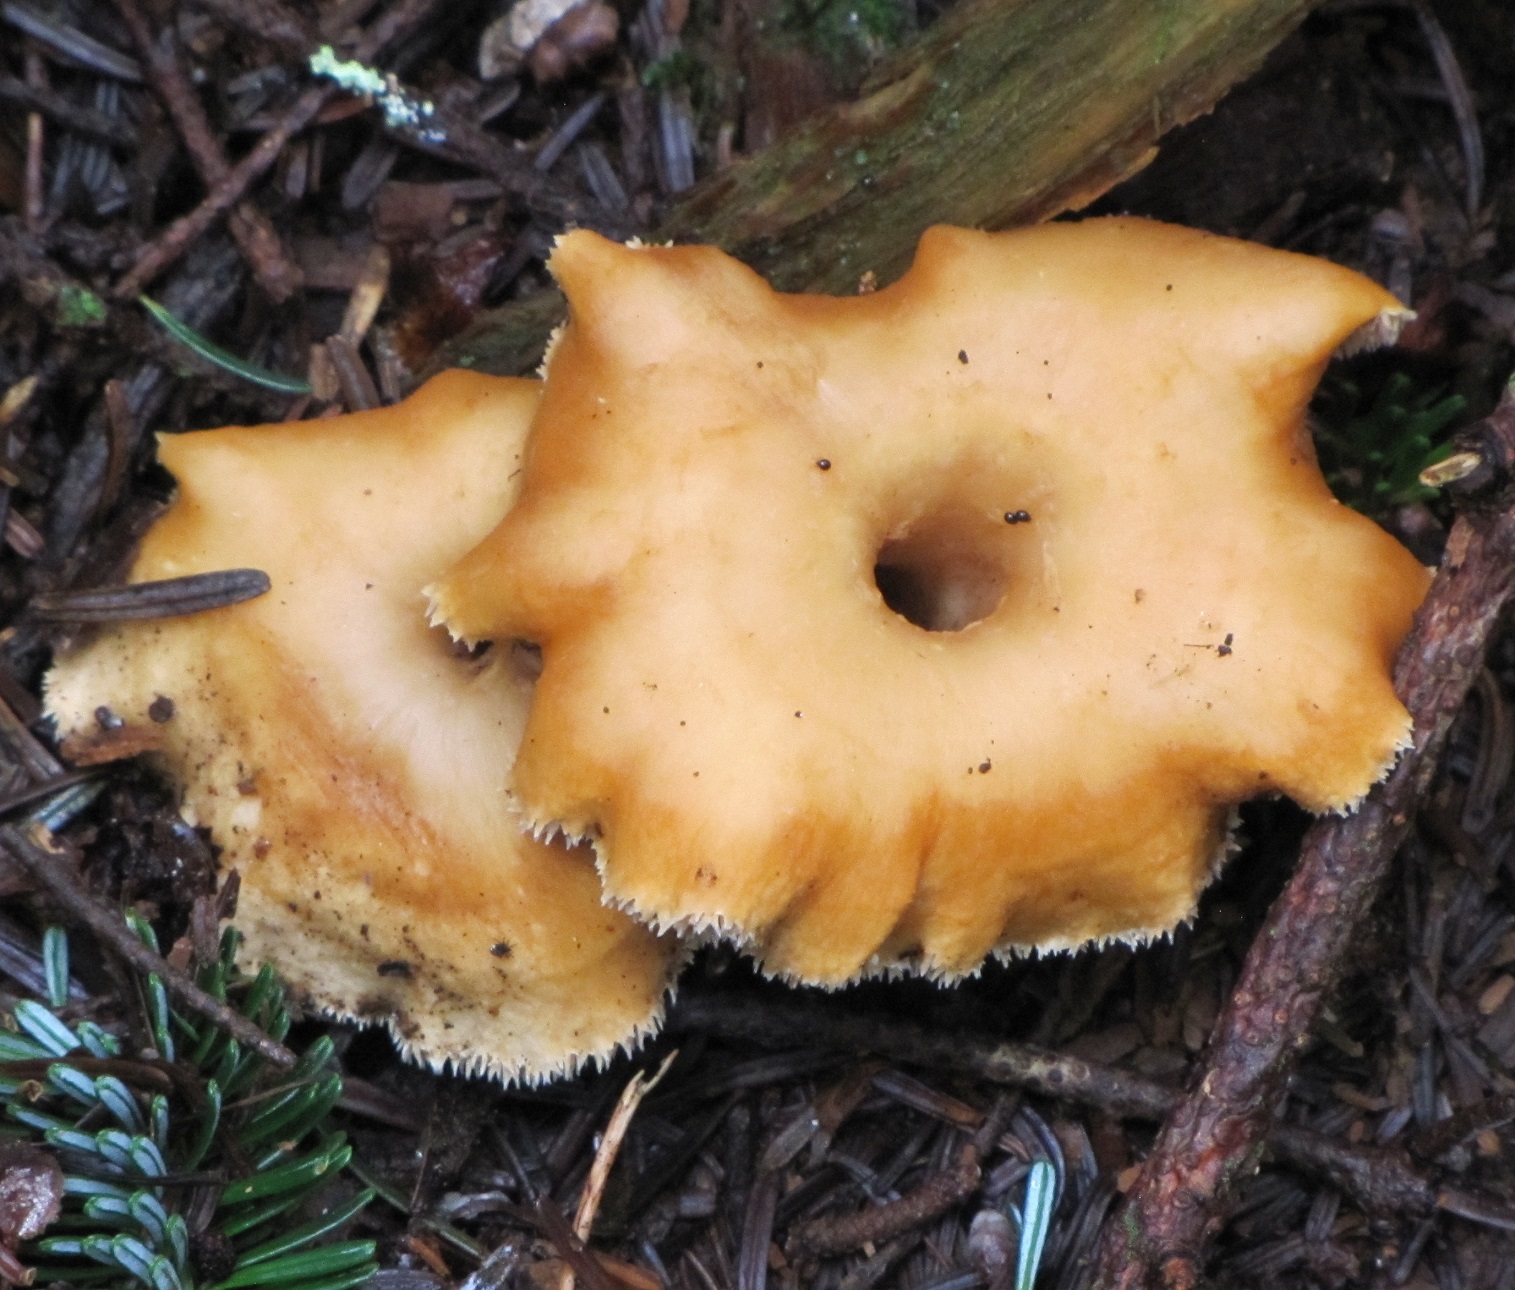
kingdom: Fungi
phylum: Basidiomycota
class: Agaricomycetes
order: Cantharellales
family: Hydnaceae
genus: Hydnum
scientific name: Hydnum umbilicatum
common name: Umbilicate hedgehog
